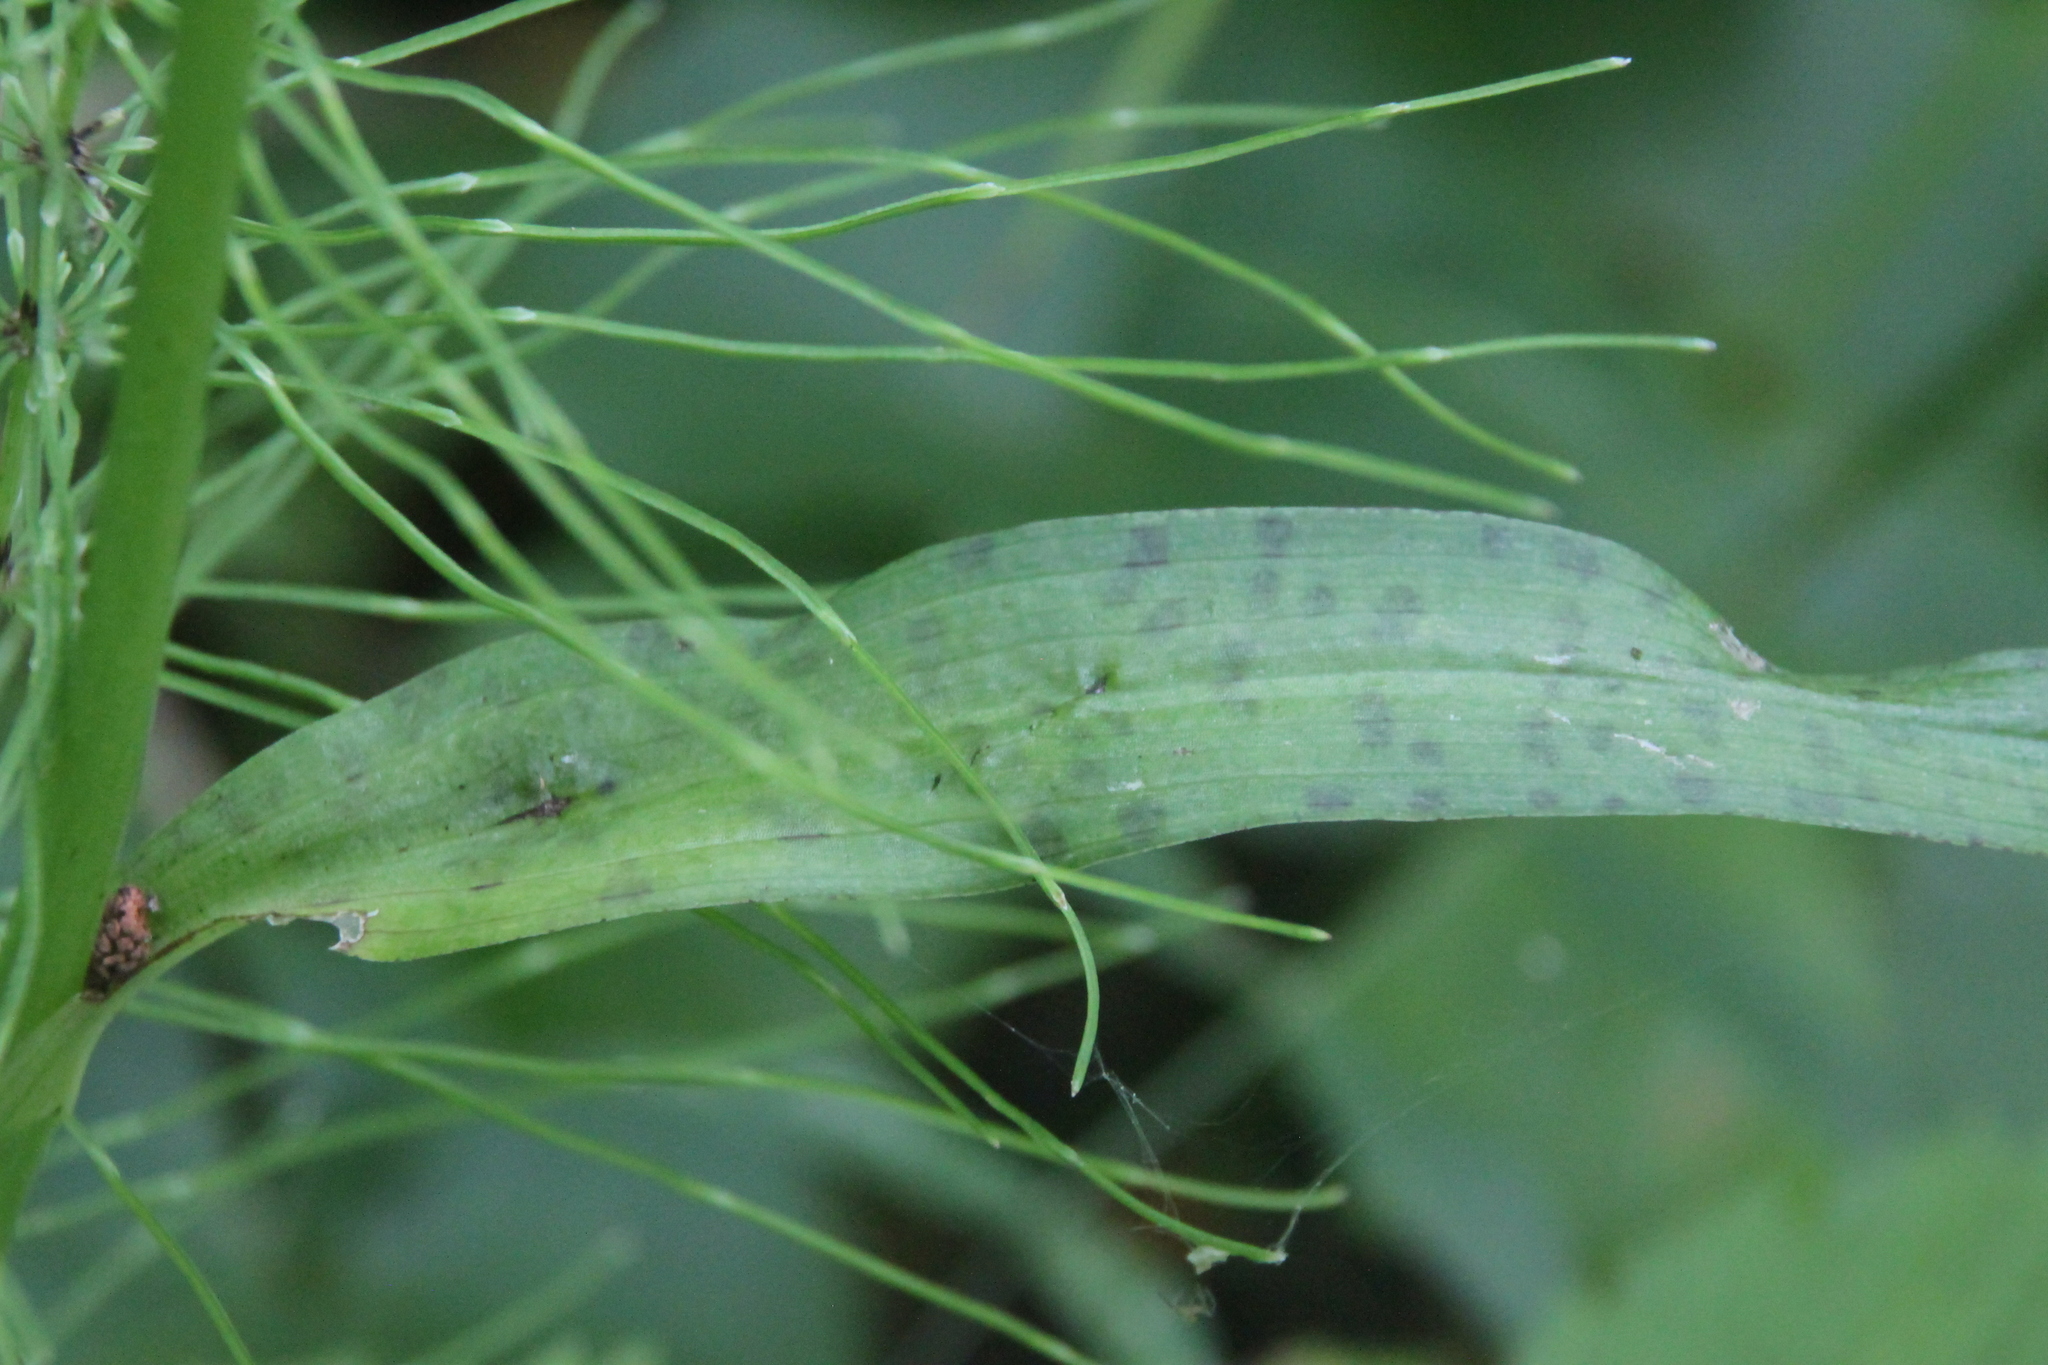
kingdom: Plantae
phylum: Tracheophyta
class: Liliopsida
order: Asparagales
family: Orchidaceae
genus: Dactylorhiza
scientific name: Dactylorhiza maculata
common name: Heath spotted-orchid
